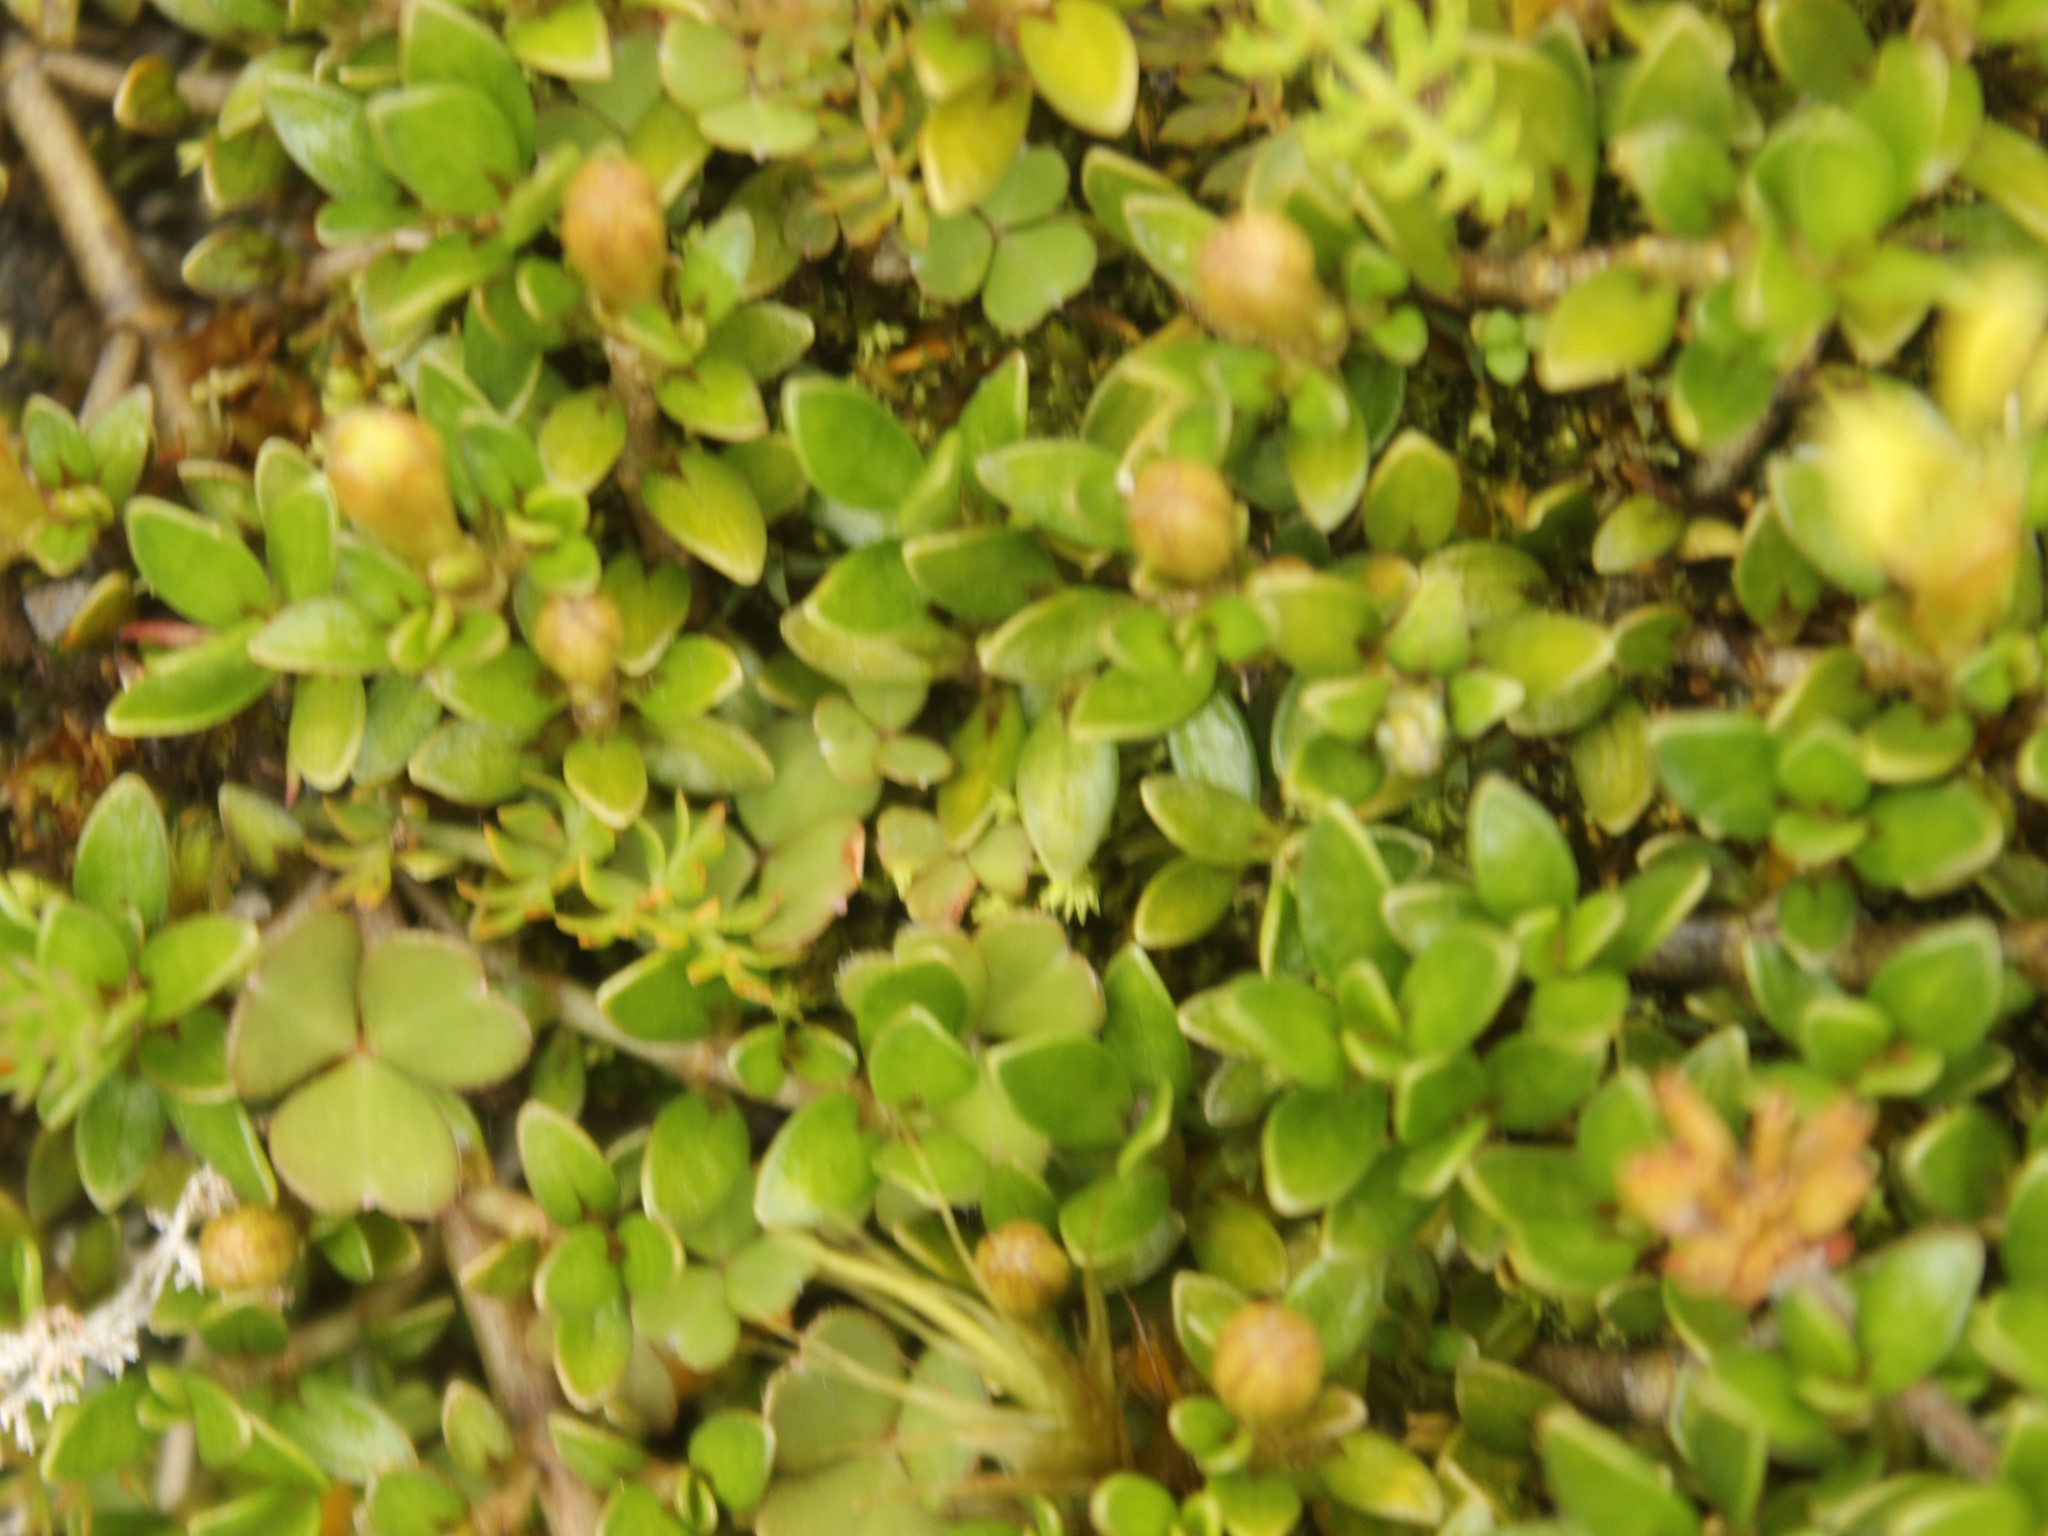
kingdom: Plantae
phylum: Tracheophyta
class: Magnoliopsida
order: Gentianales
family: Rubiaceae
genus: Coprosma
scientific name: Coprosma perpusilla
